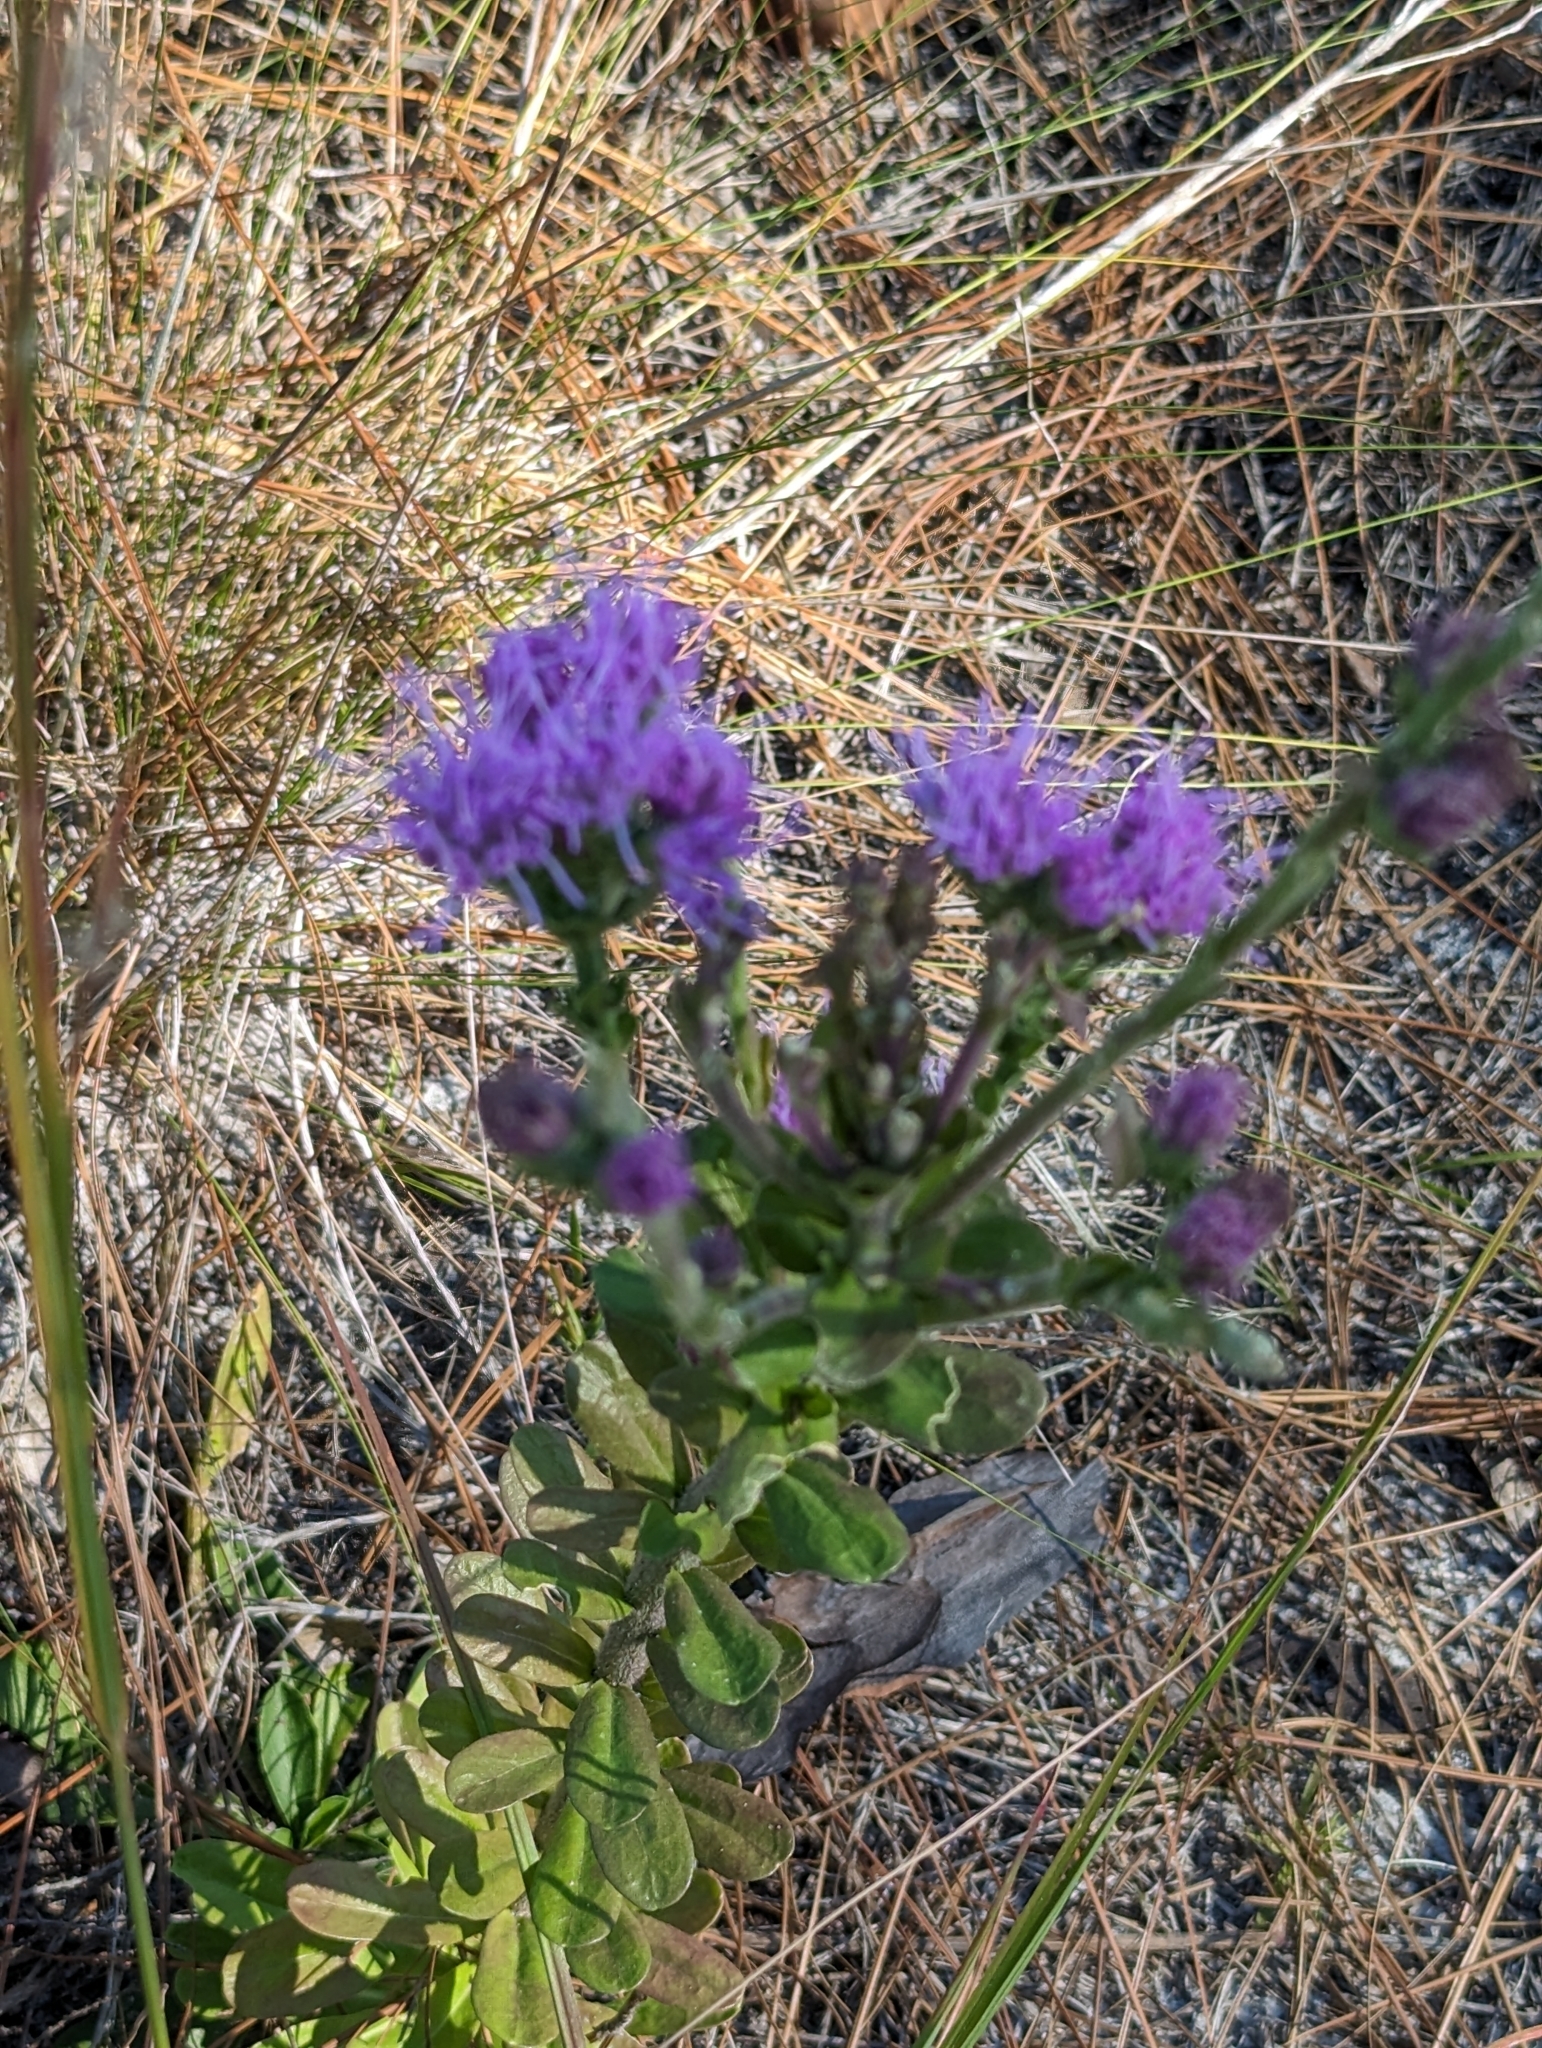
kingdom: Plantae
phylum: Tracheophyta
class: Magnoliopsida
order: Asterales
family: Asteraceae
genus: Carphephorus
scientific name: Carphephorus corymbosus
